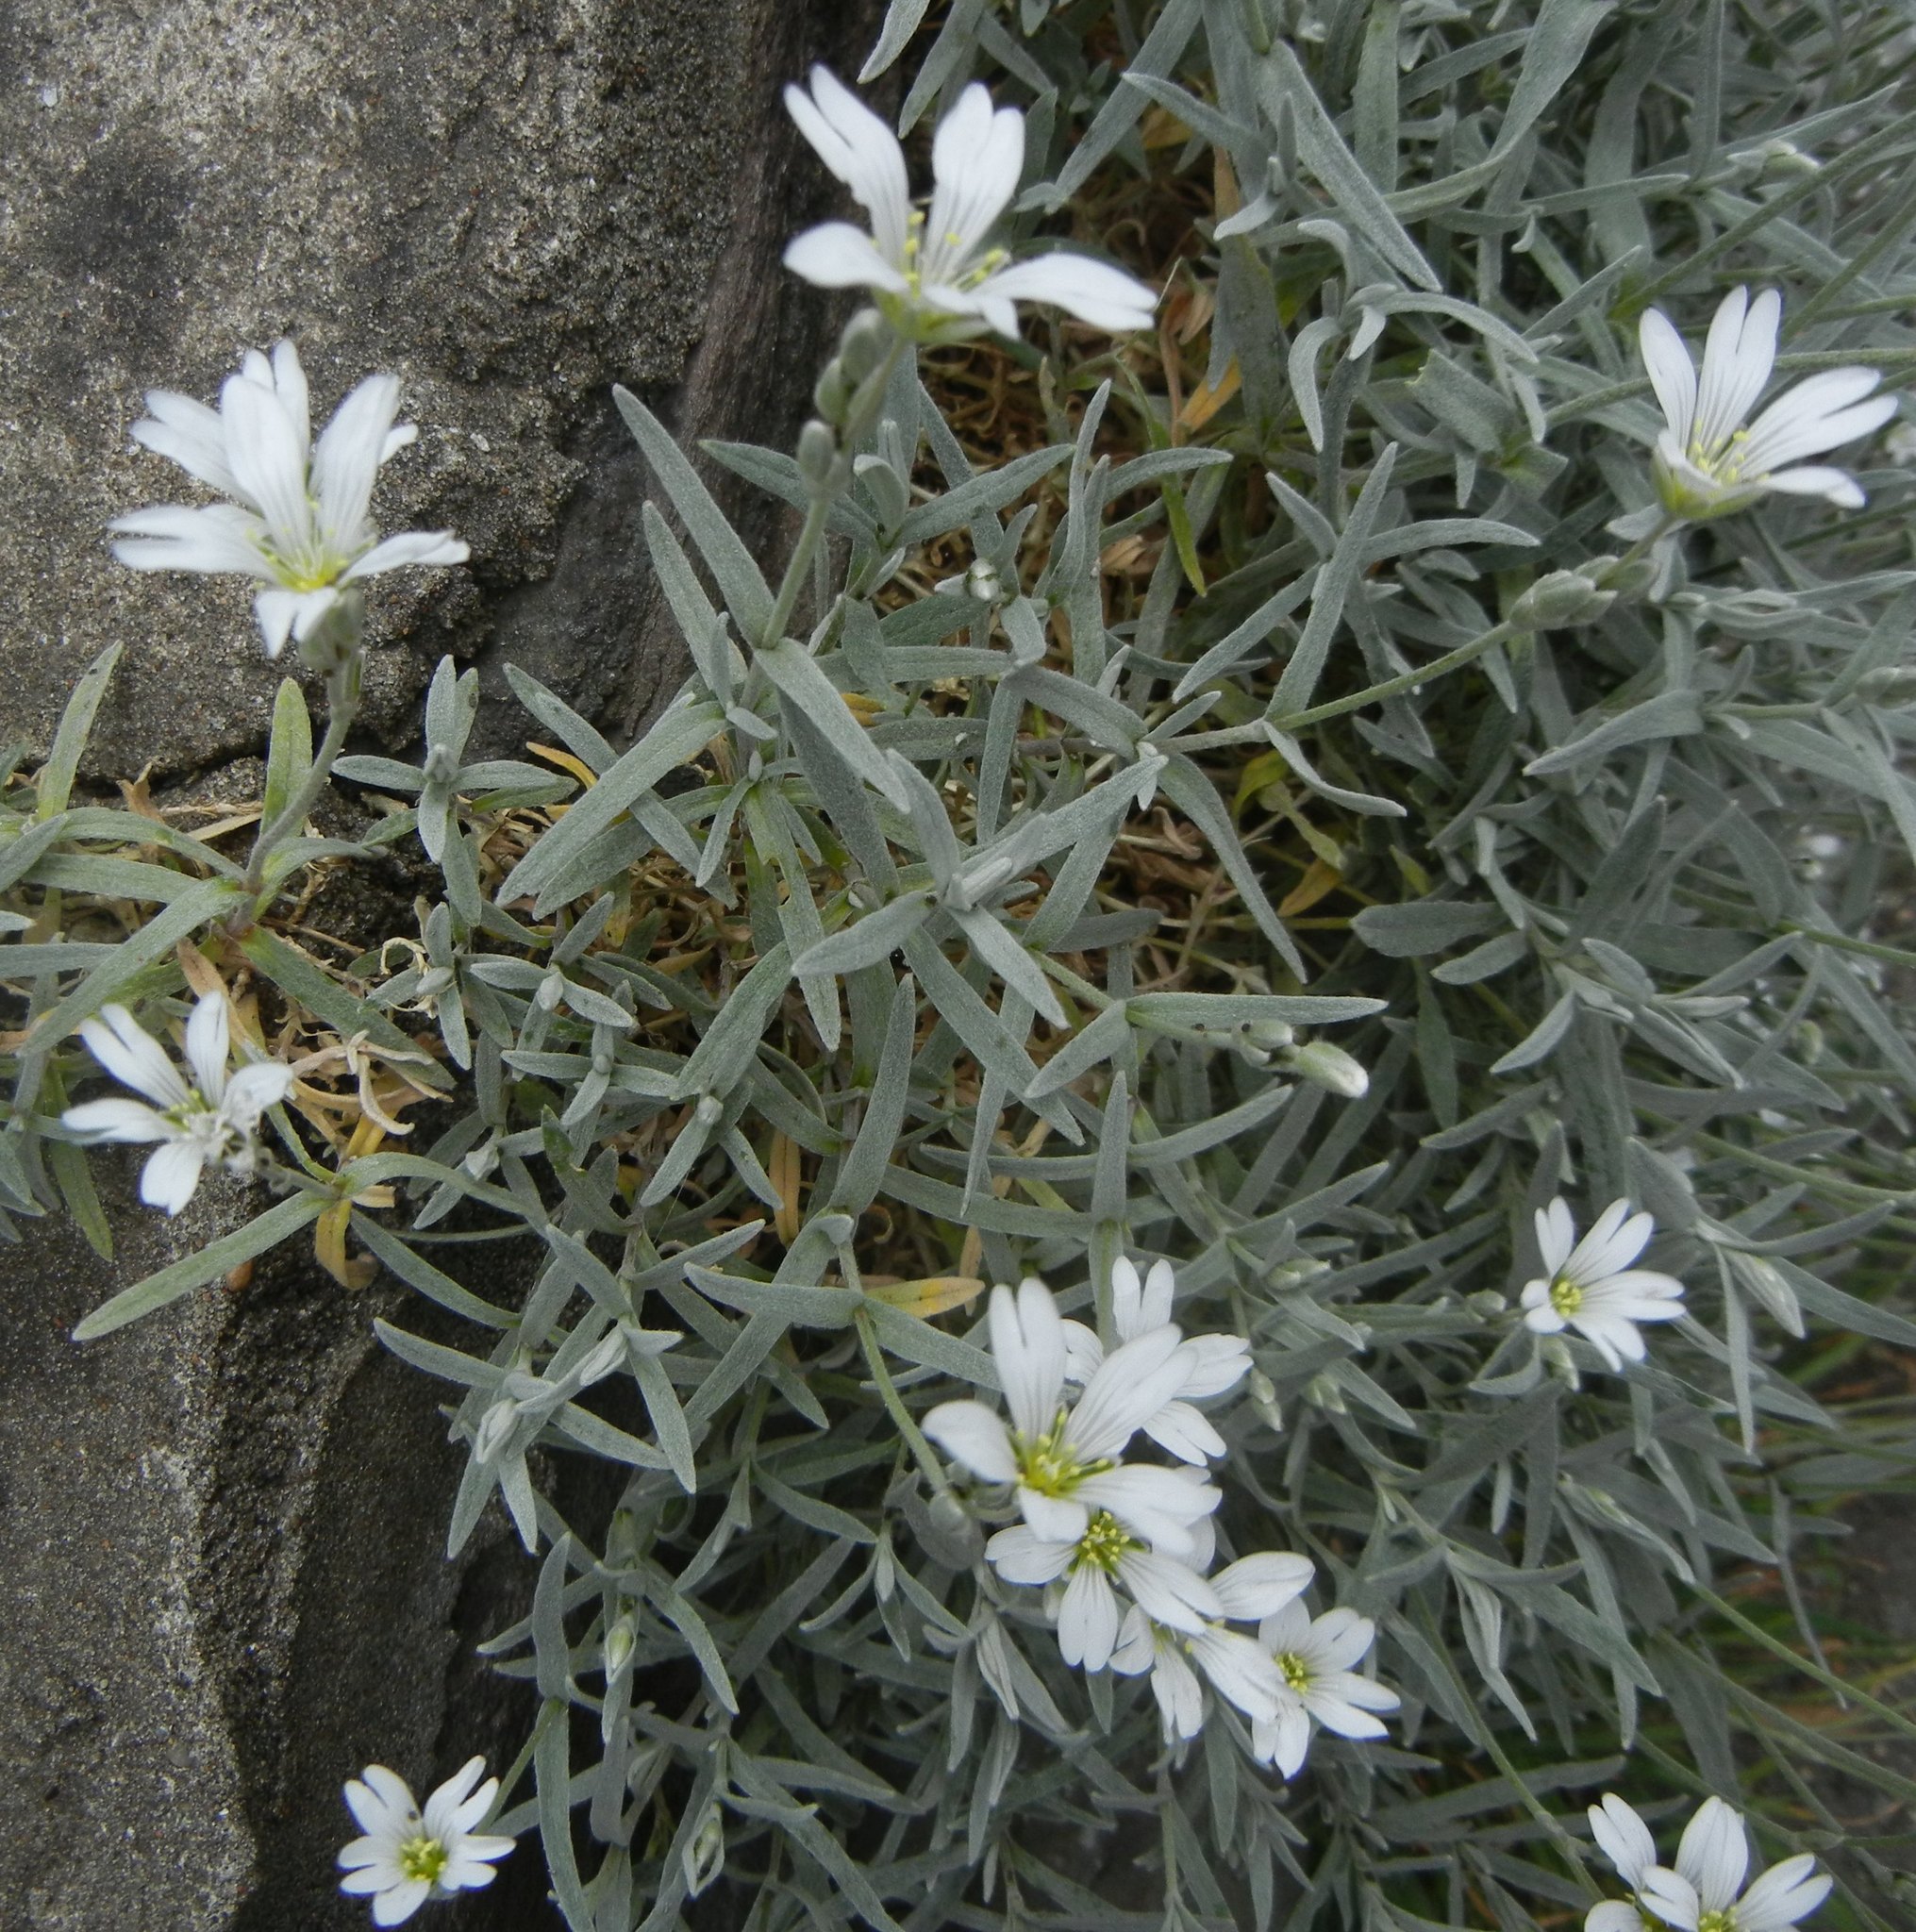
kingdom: Plantae
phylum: Tracheophyta
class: Magnoliopsida
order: Caryophyllales
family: Caryophyllaceae
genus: Cerastium
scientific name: Cerastium tomentosum
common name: Snow-in-summer
